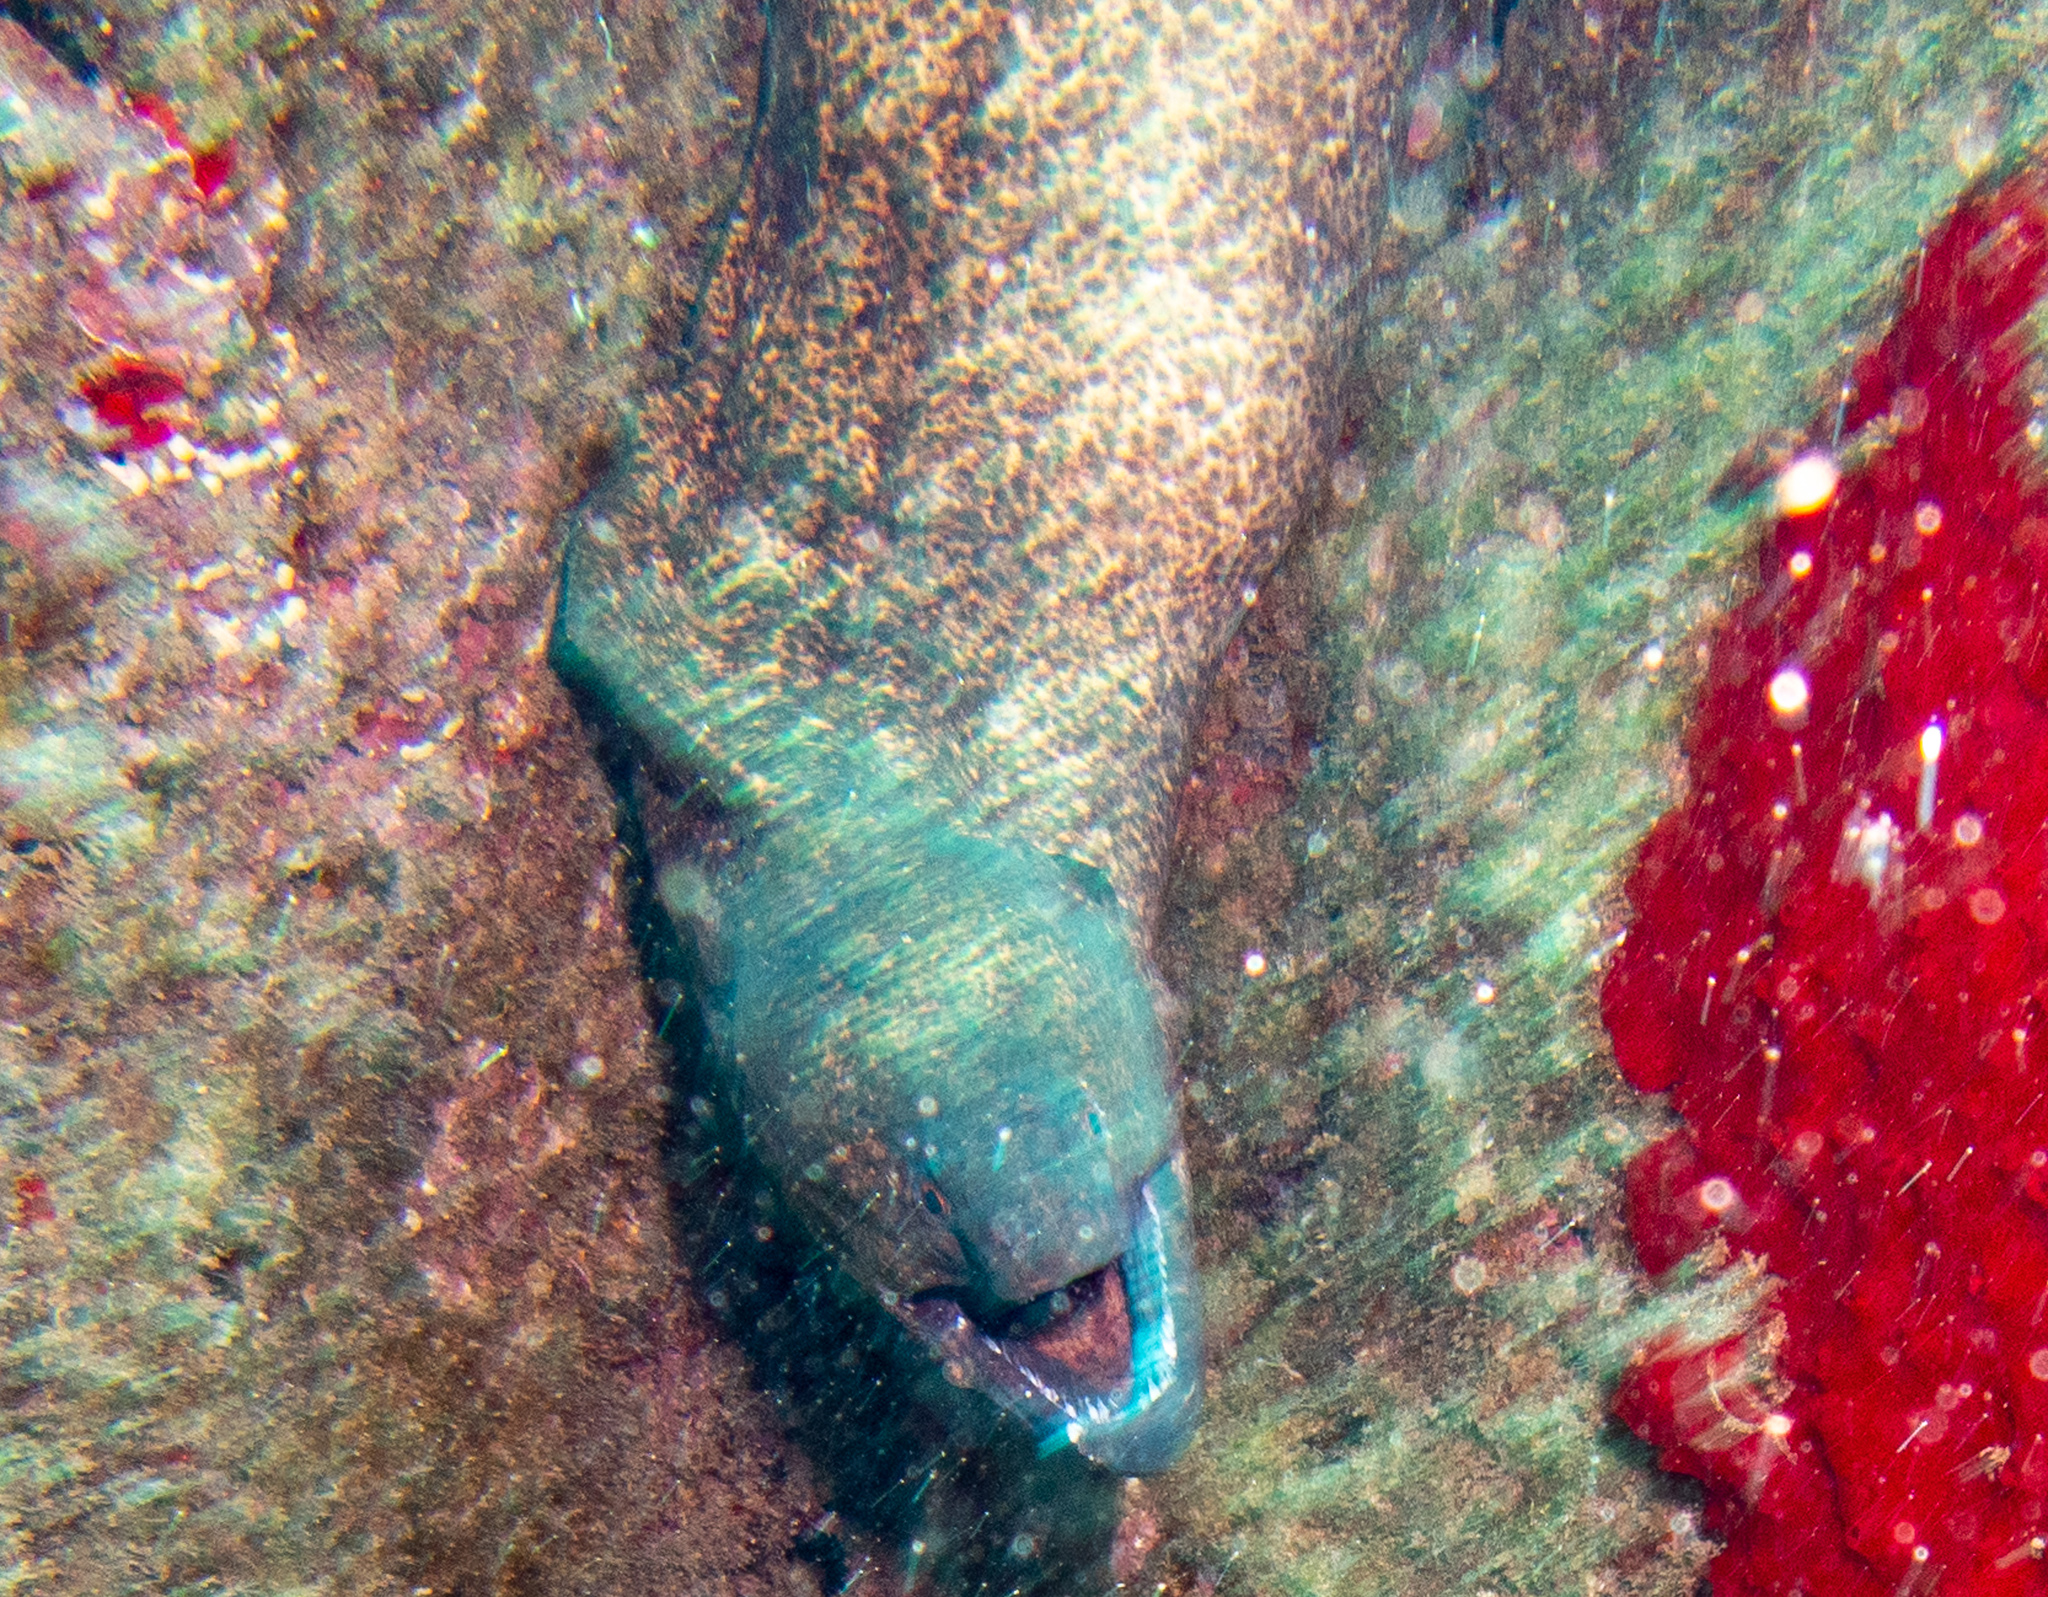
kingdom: Animalia
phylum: Chordata
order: Anguilliformes
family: Muraenidae
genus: Gymnothorax
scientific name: Gymnothorax flavimarginatus
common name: Yellow-edged moray
